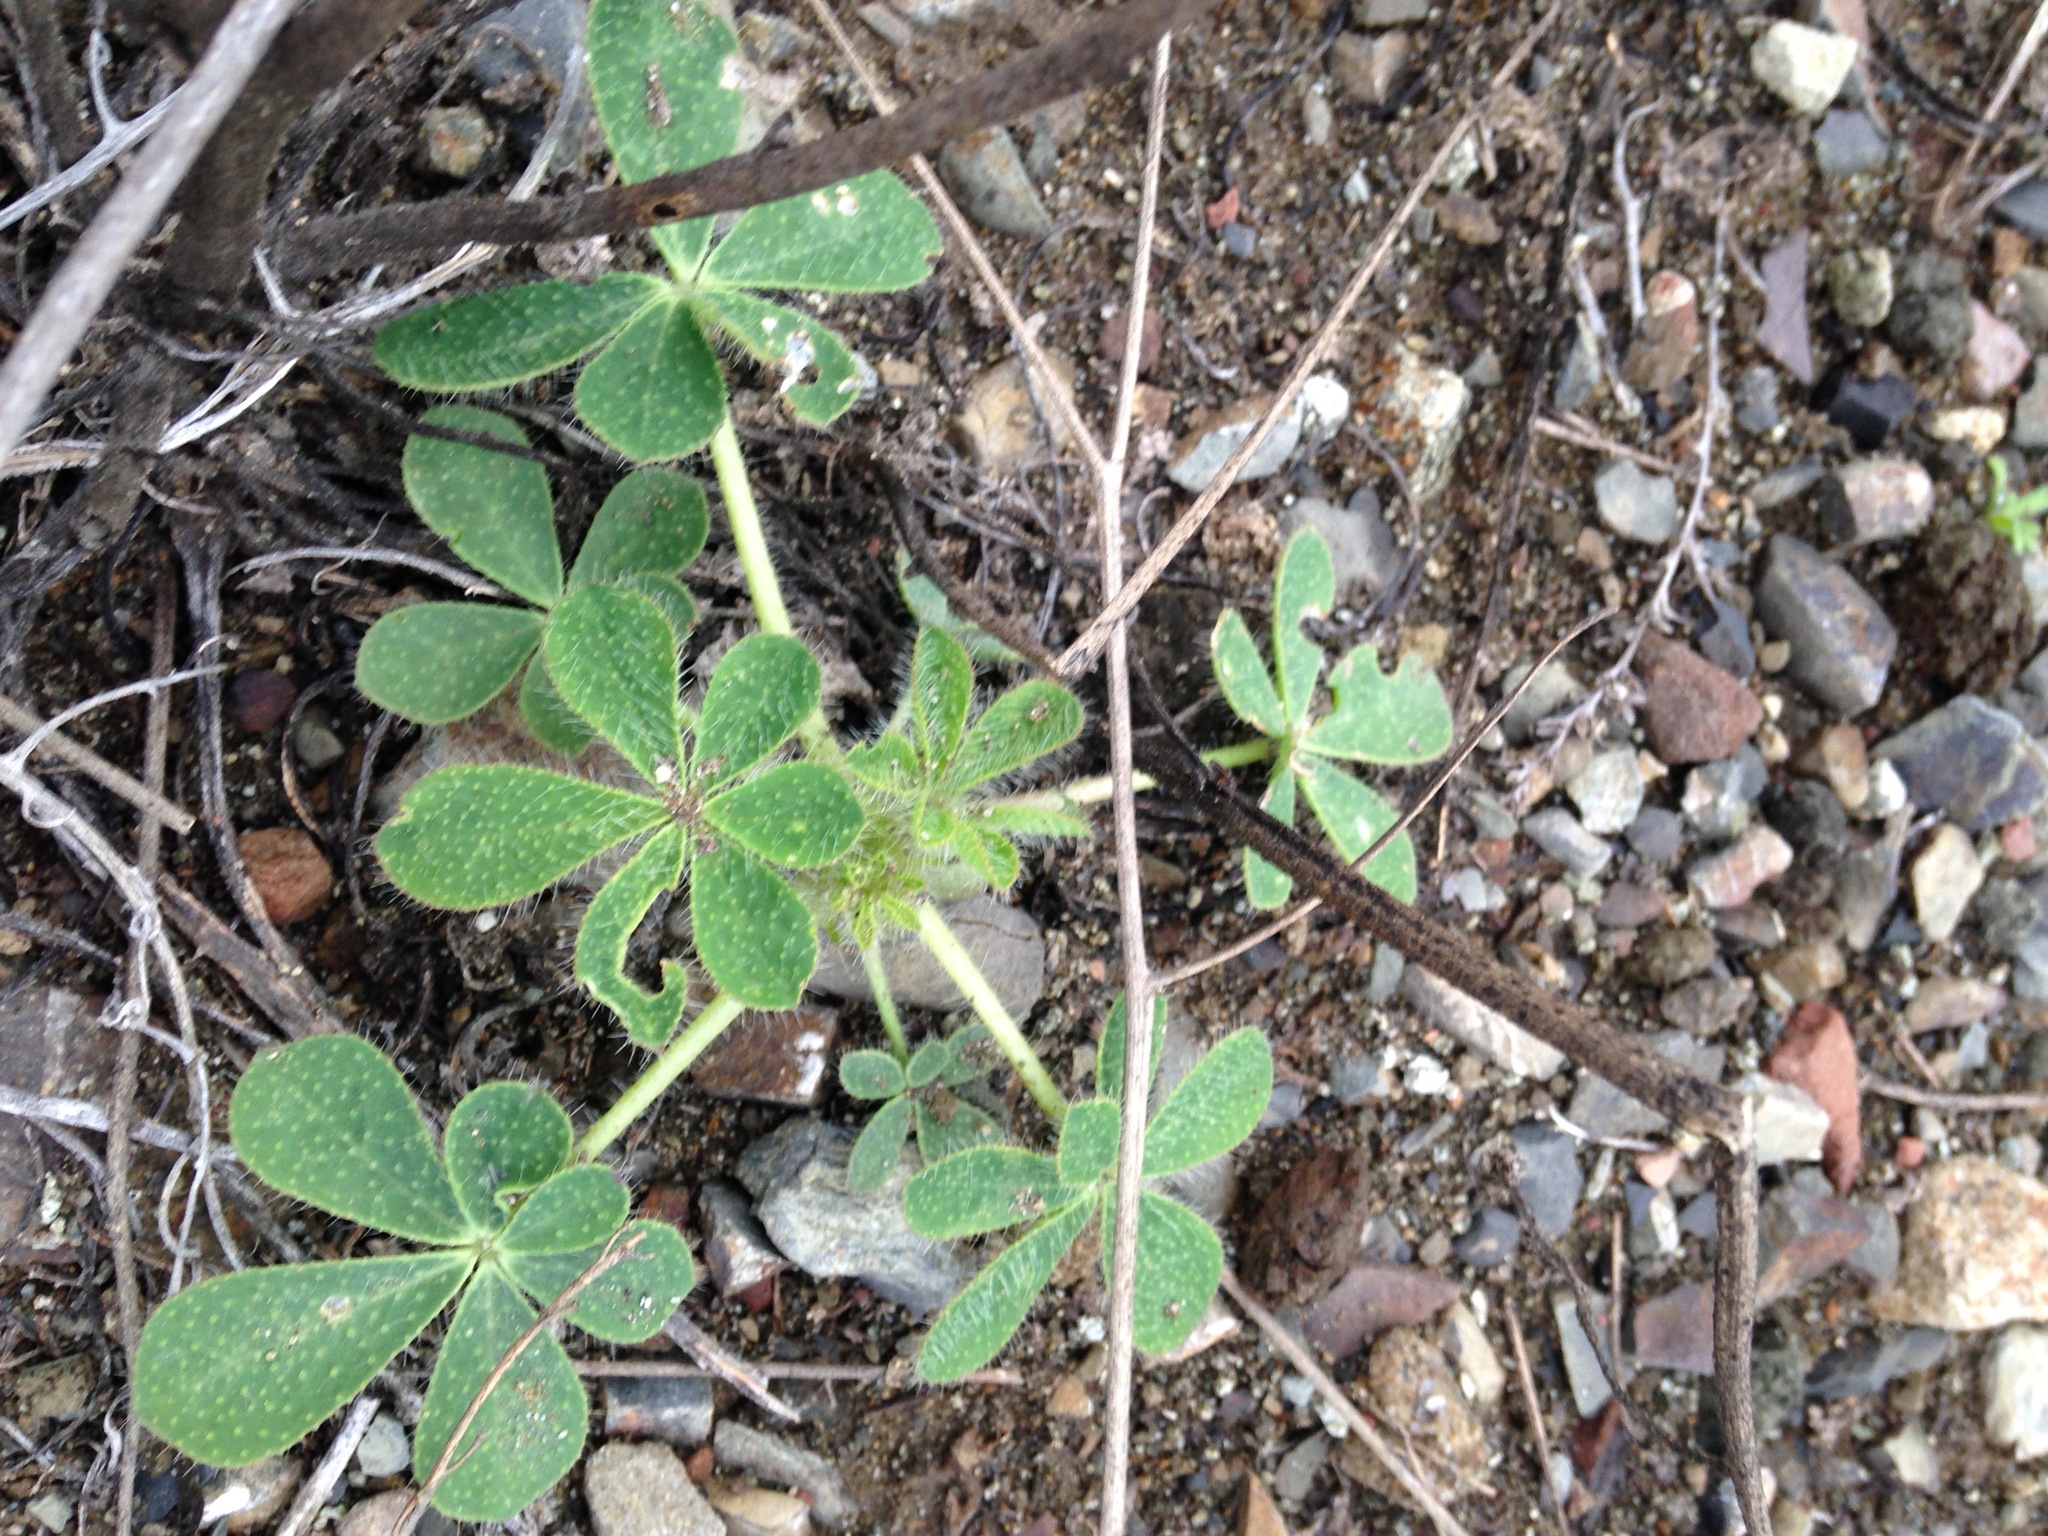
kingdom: Plantae
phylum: Tracheophyta
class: Magnoliopsida
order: Fabales
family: Fabaceae
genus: Lupinus
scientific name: Lupinus hirsutissimus
